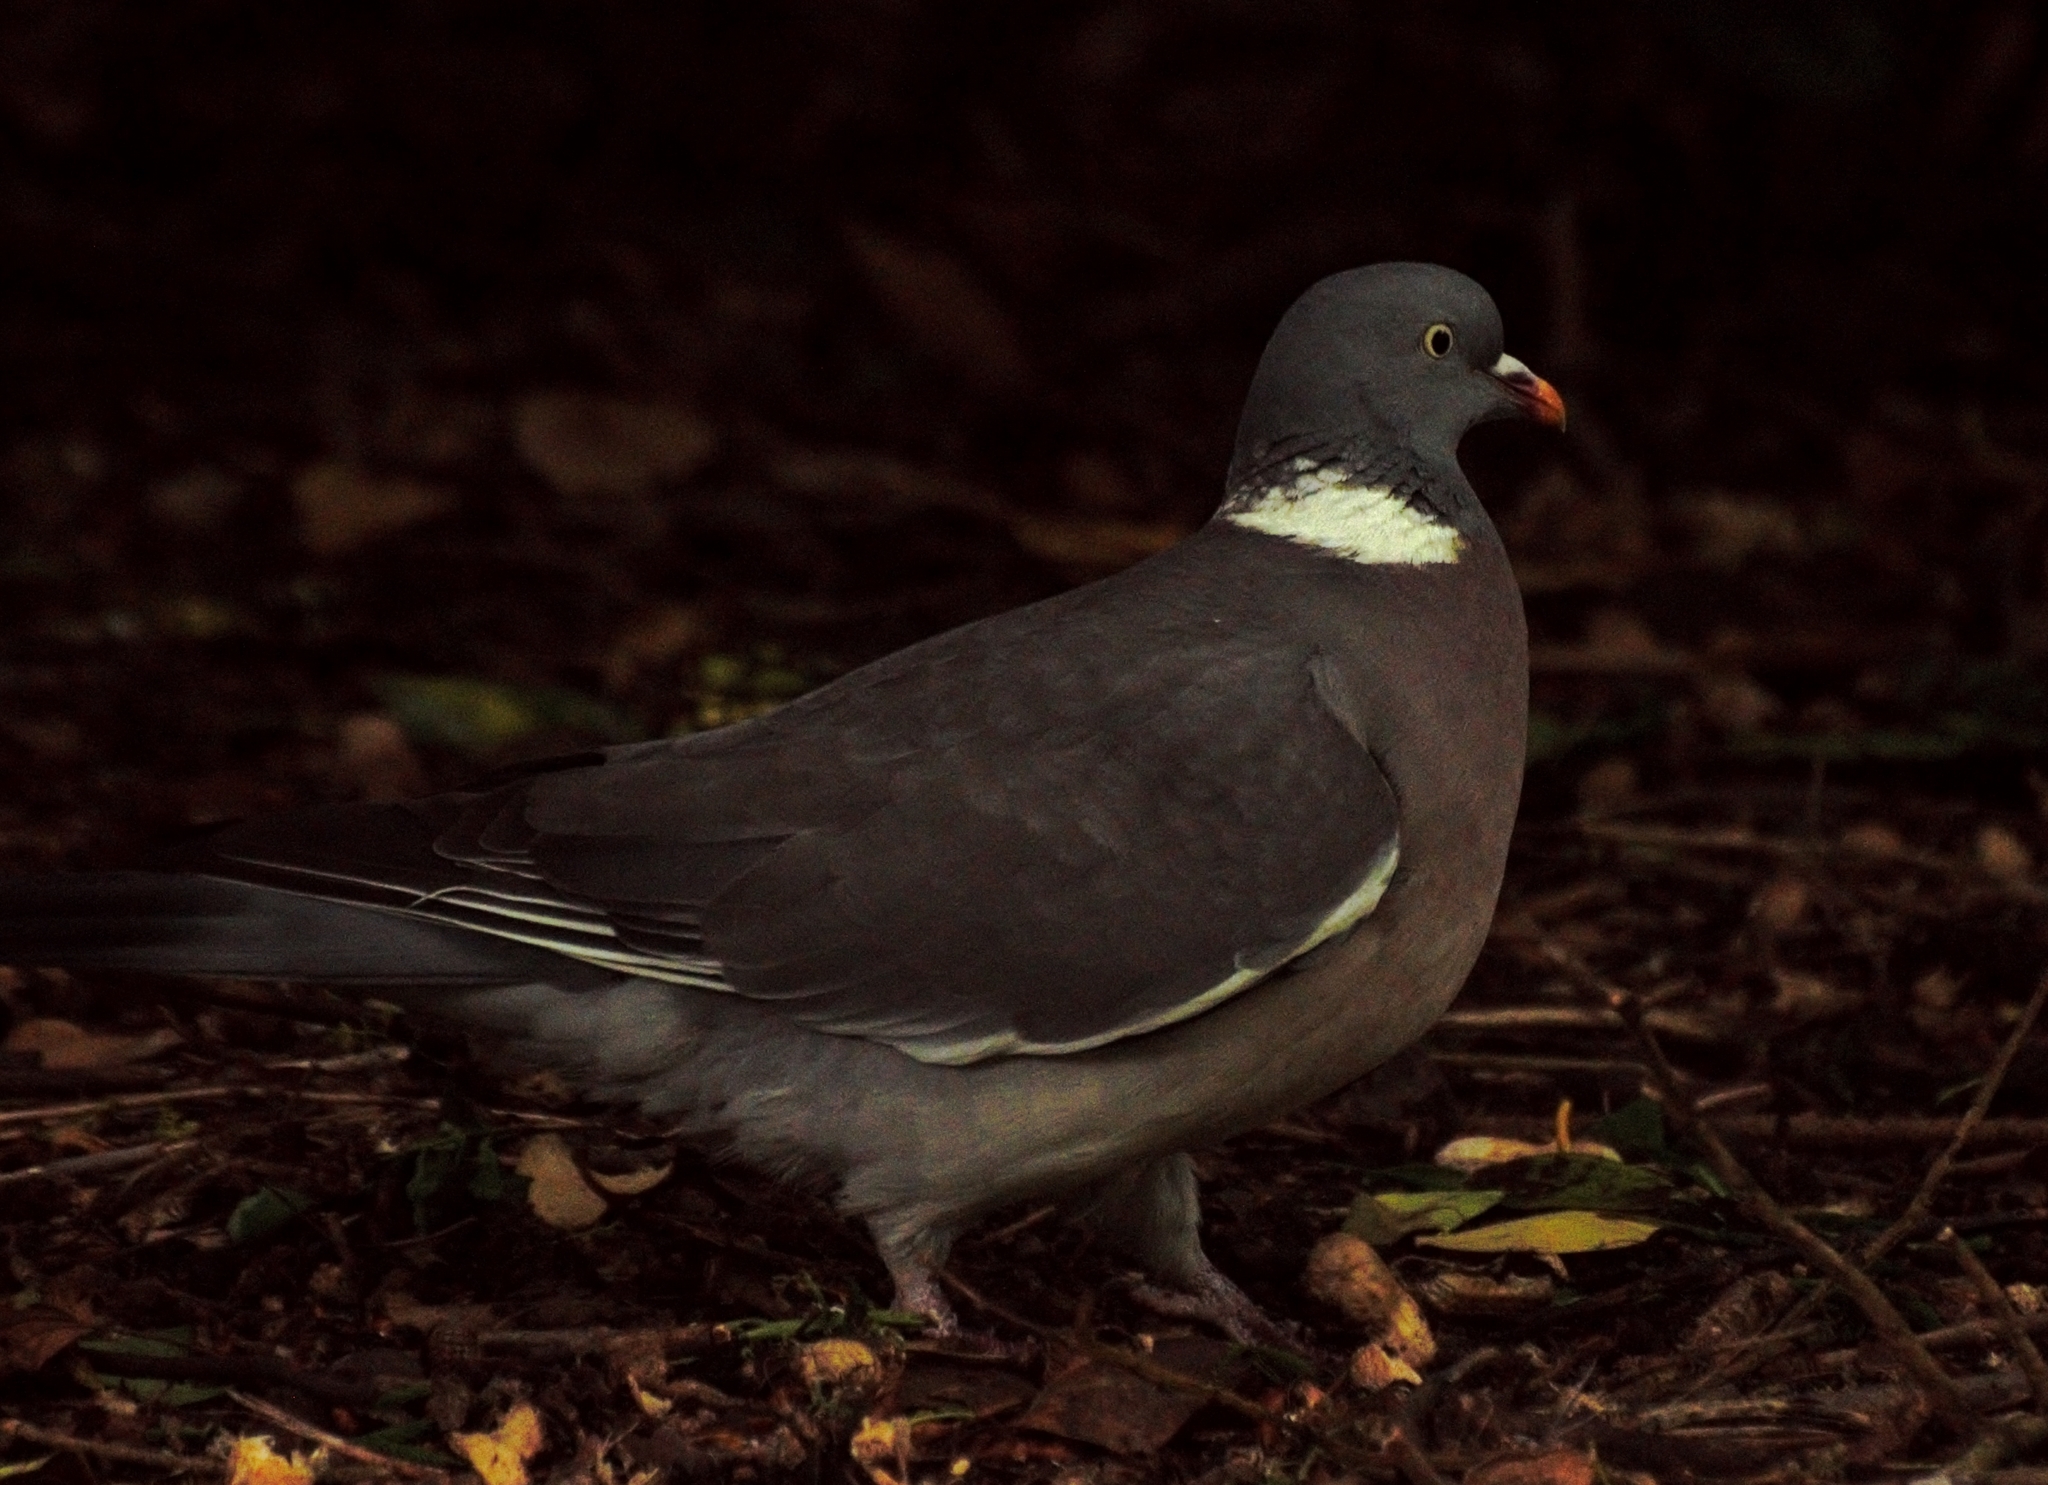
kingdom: Animalia
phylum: Chordata
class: Aves
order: Columbiformes
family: Columbidae
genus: Columba
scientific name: Columba palumbus
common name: Common wood pigeon
